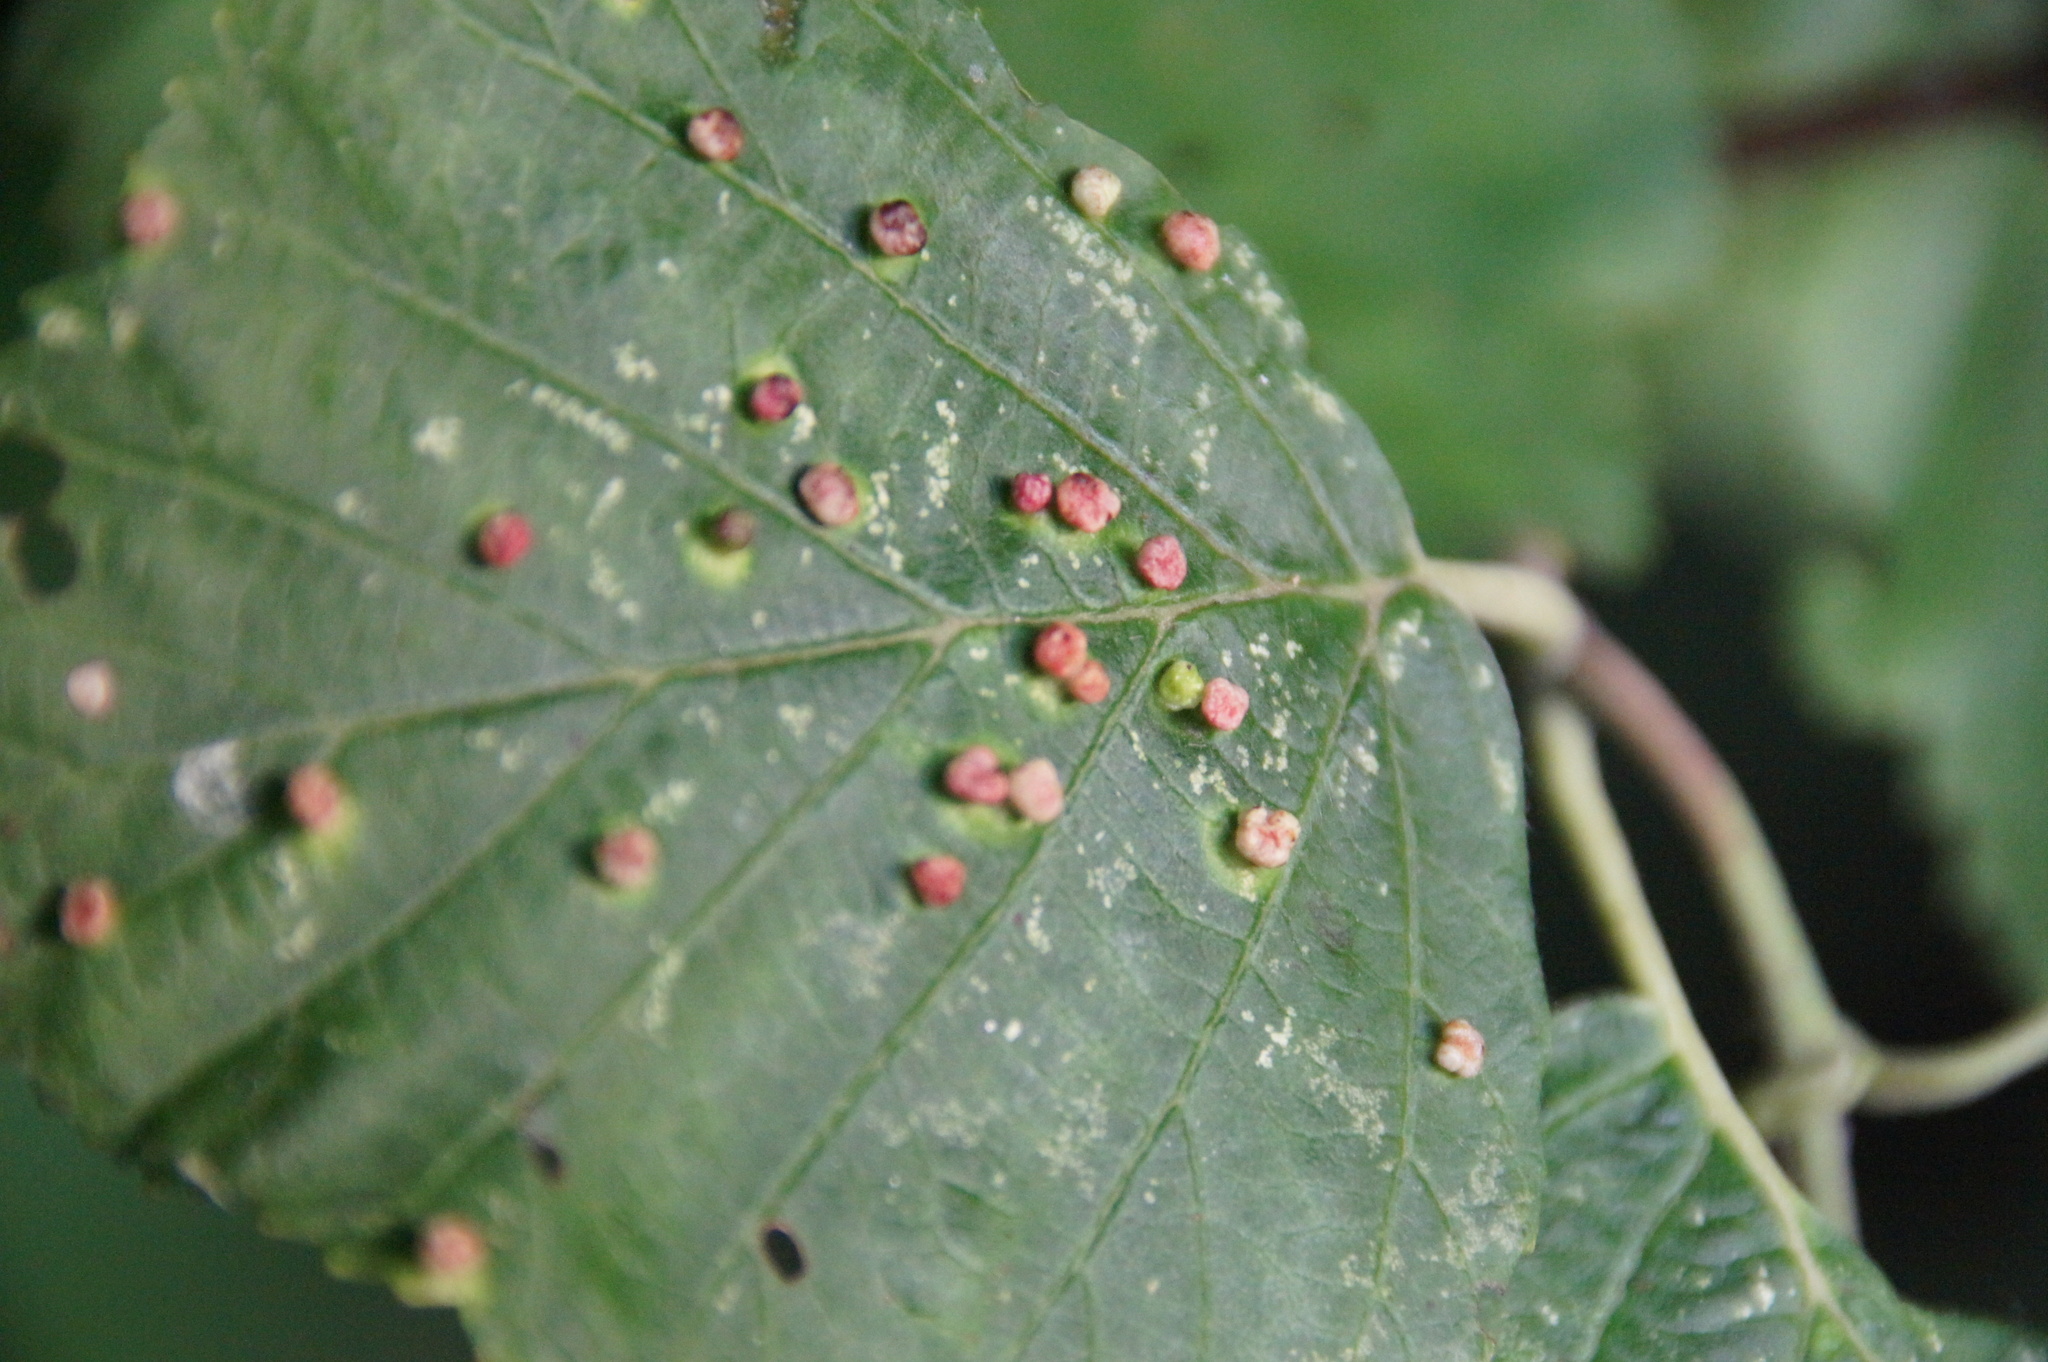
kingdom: Animalia
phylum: Arthropoda
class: Arachnida
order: Trombidiformes
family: Eriophyidae
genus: Eriophyes
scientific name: Eriophyes laevis
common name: Alder leaf gall mite
